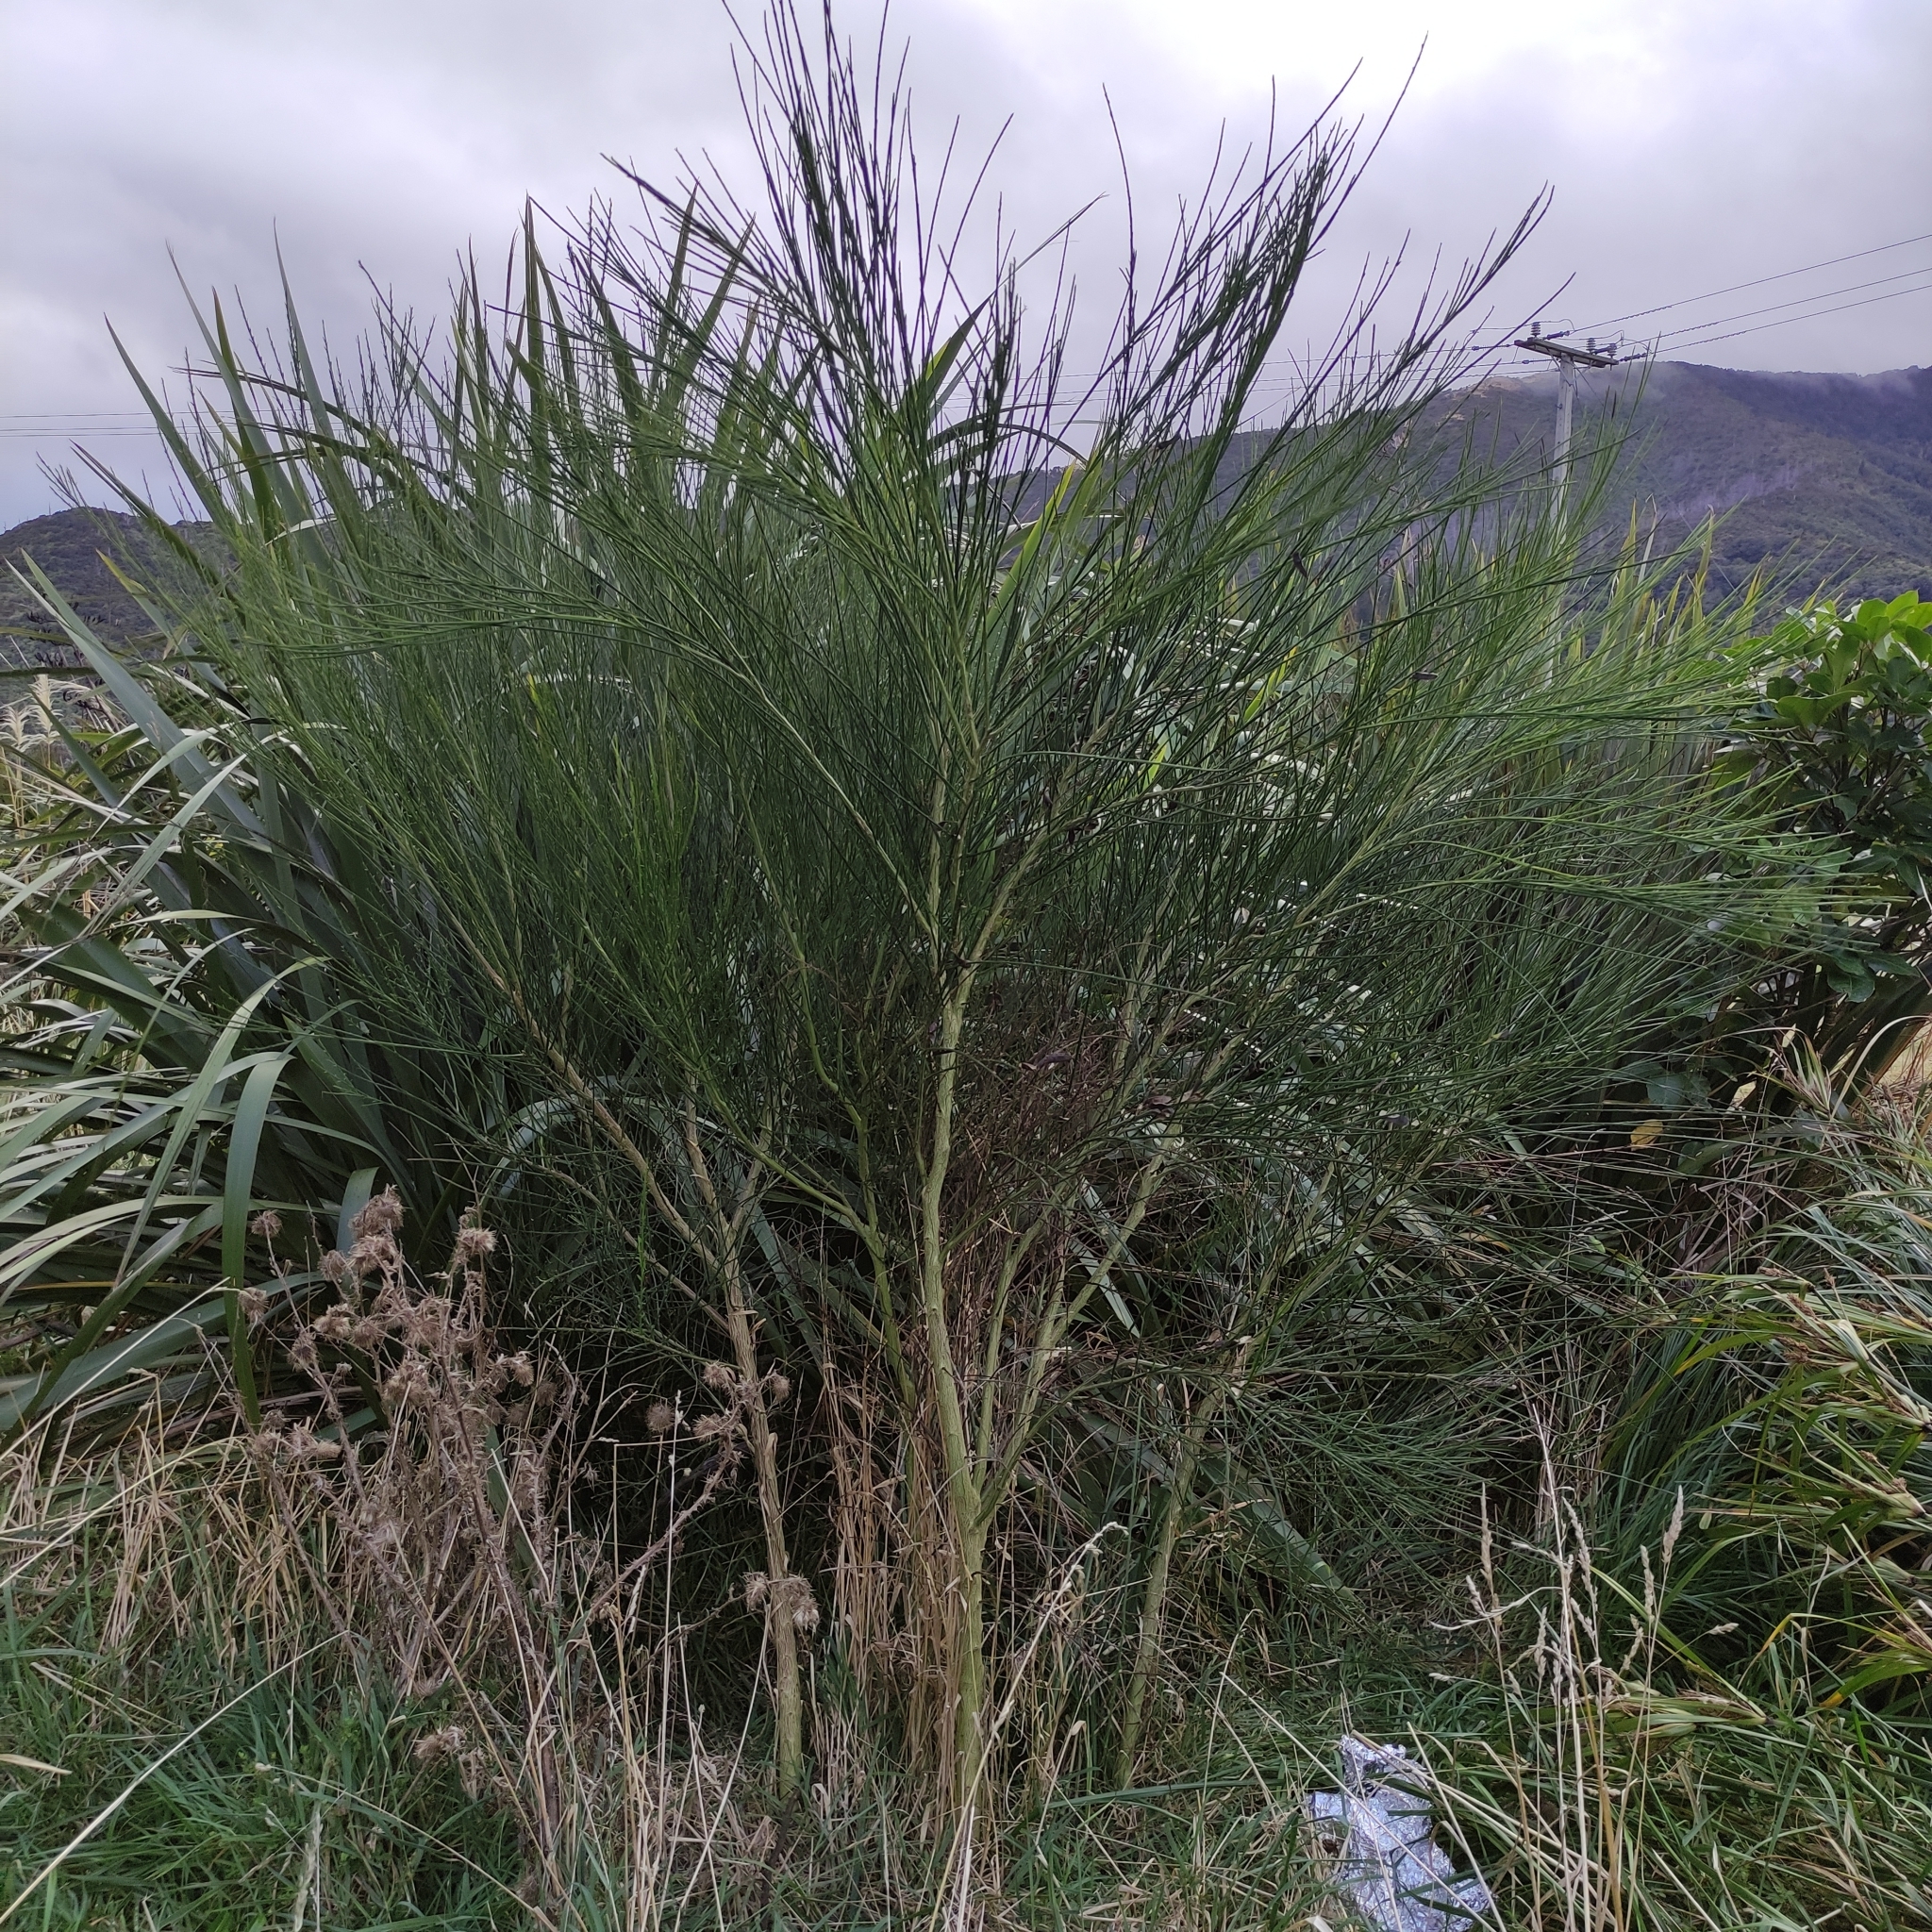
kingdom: Plantae
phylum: Tracheophyta
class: Magnoliopsida
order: Fabales
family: Fabaceae
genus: Cytisus
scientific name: Cytisus scoparius
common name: Scotch broom
